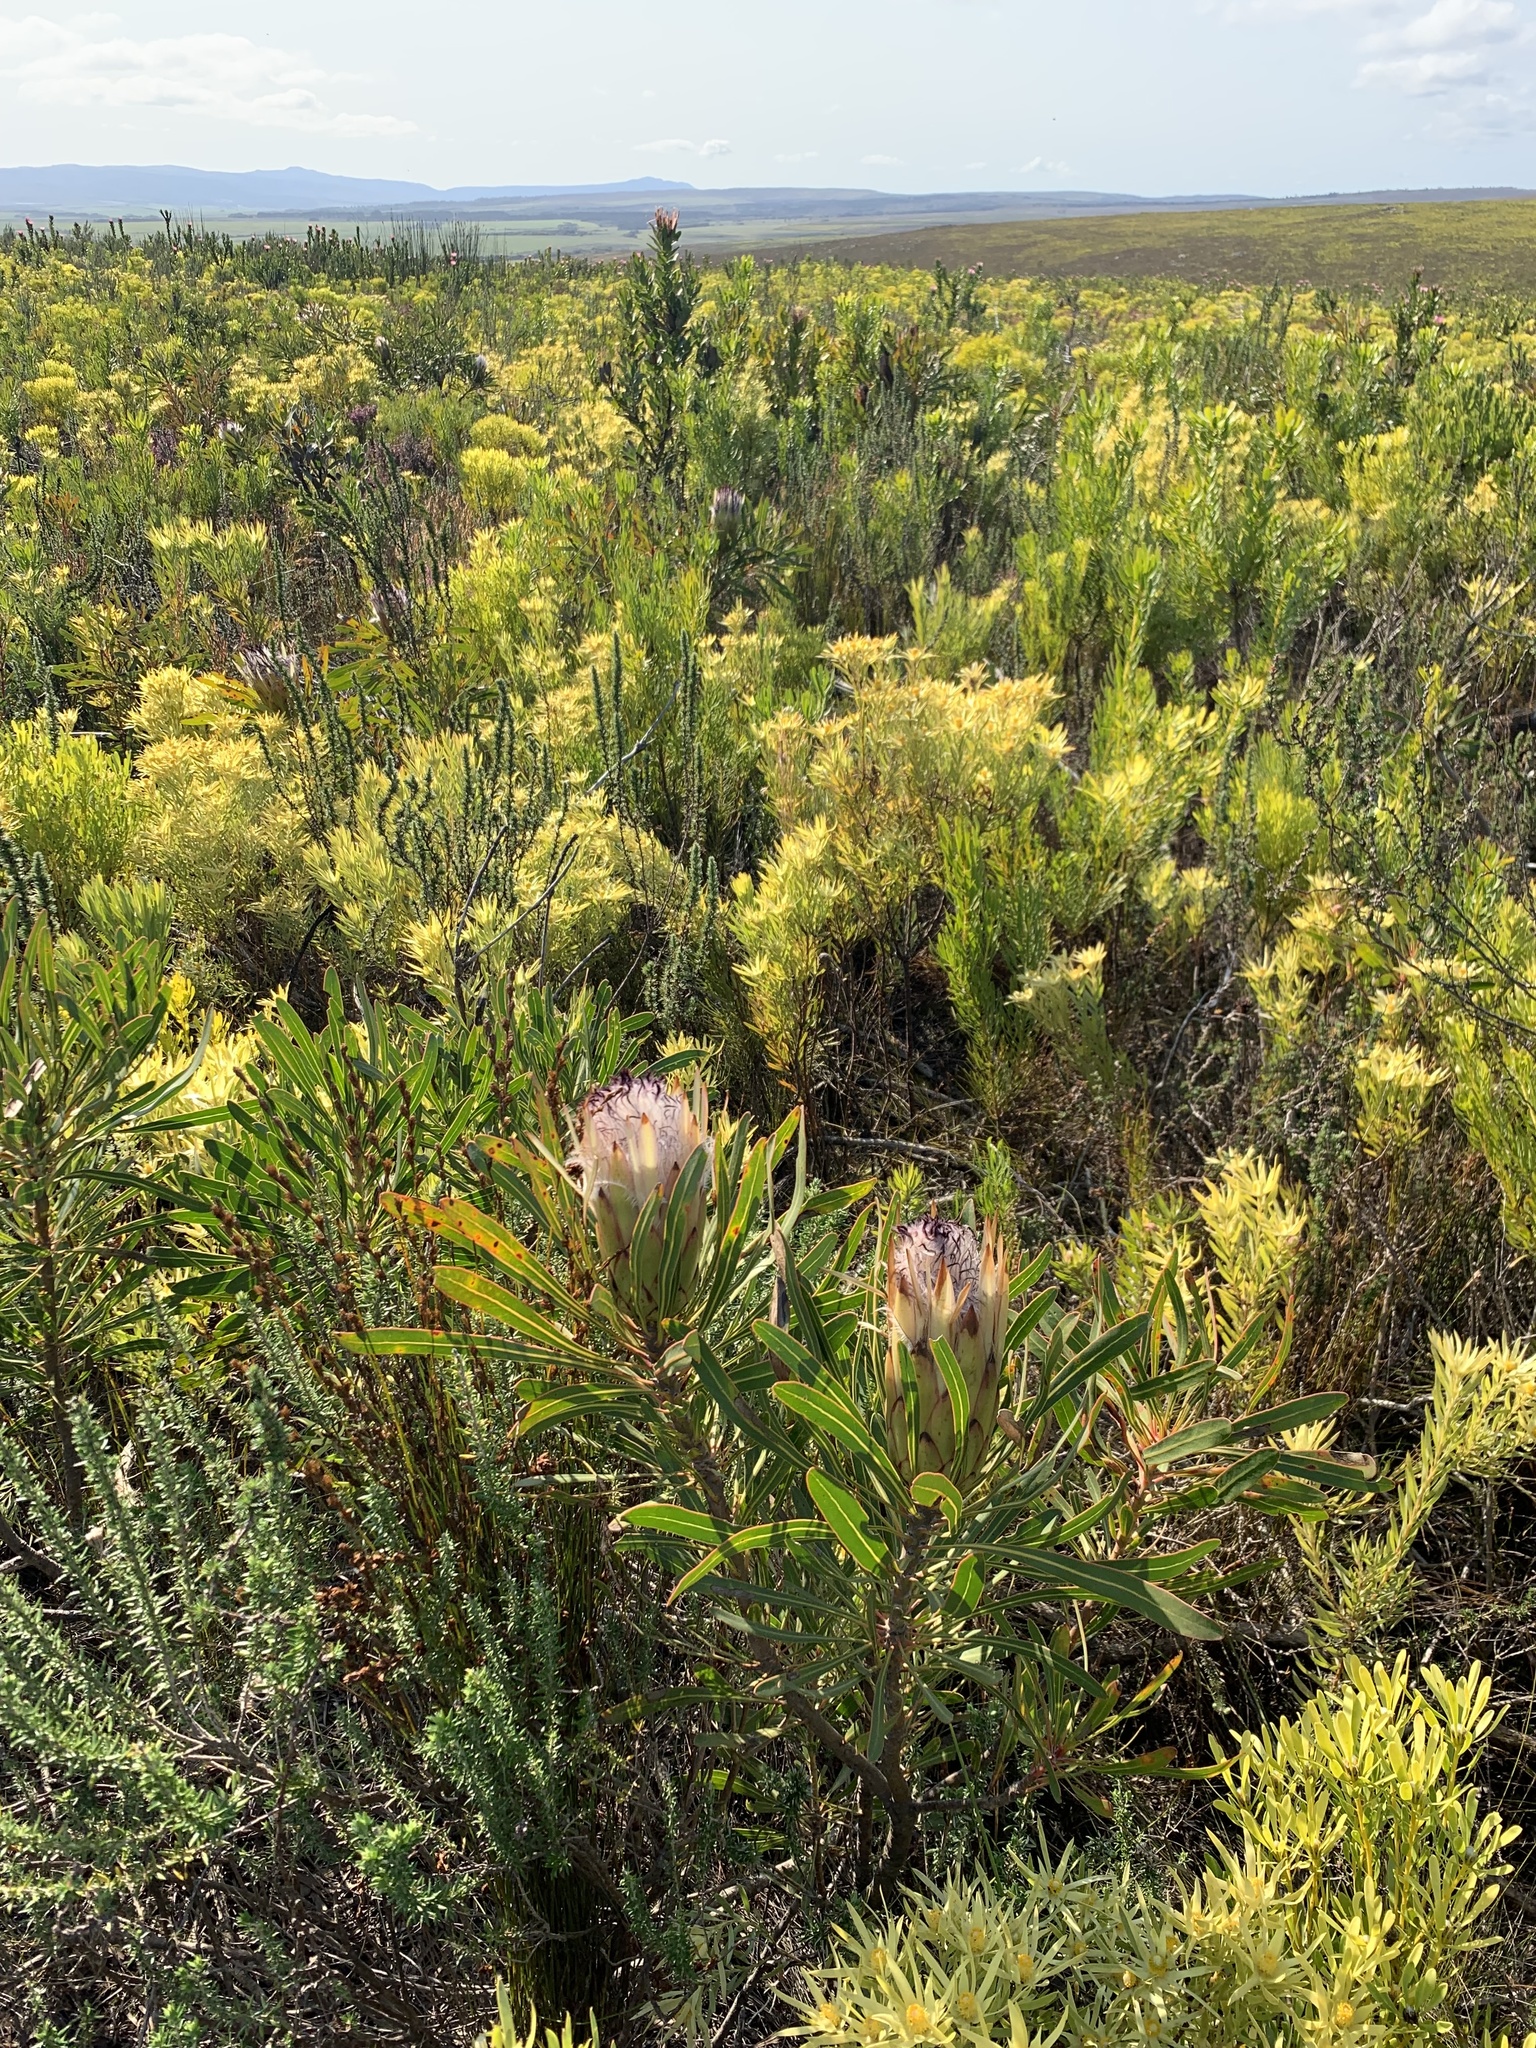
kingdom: Plantae
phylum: Tracheophyta
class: Magnoliopsida
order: Proteales
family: Proteaceae
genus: Protea
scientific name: Protea longifolia
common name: Long-leaf sugarbush
